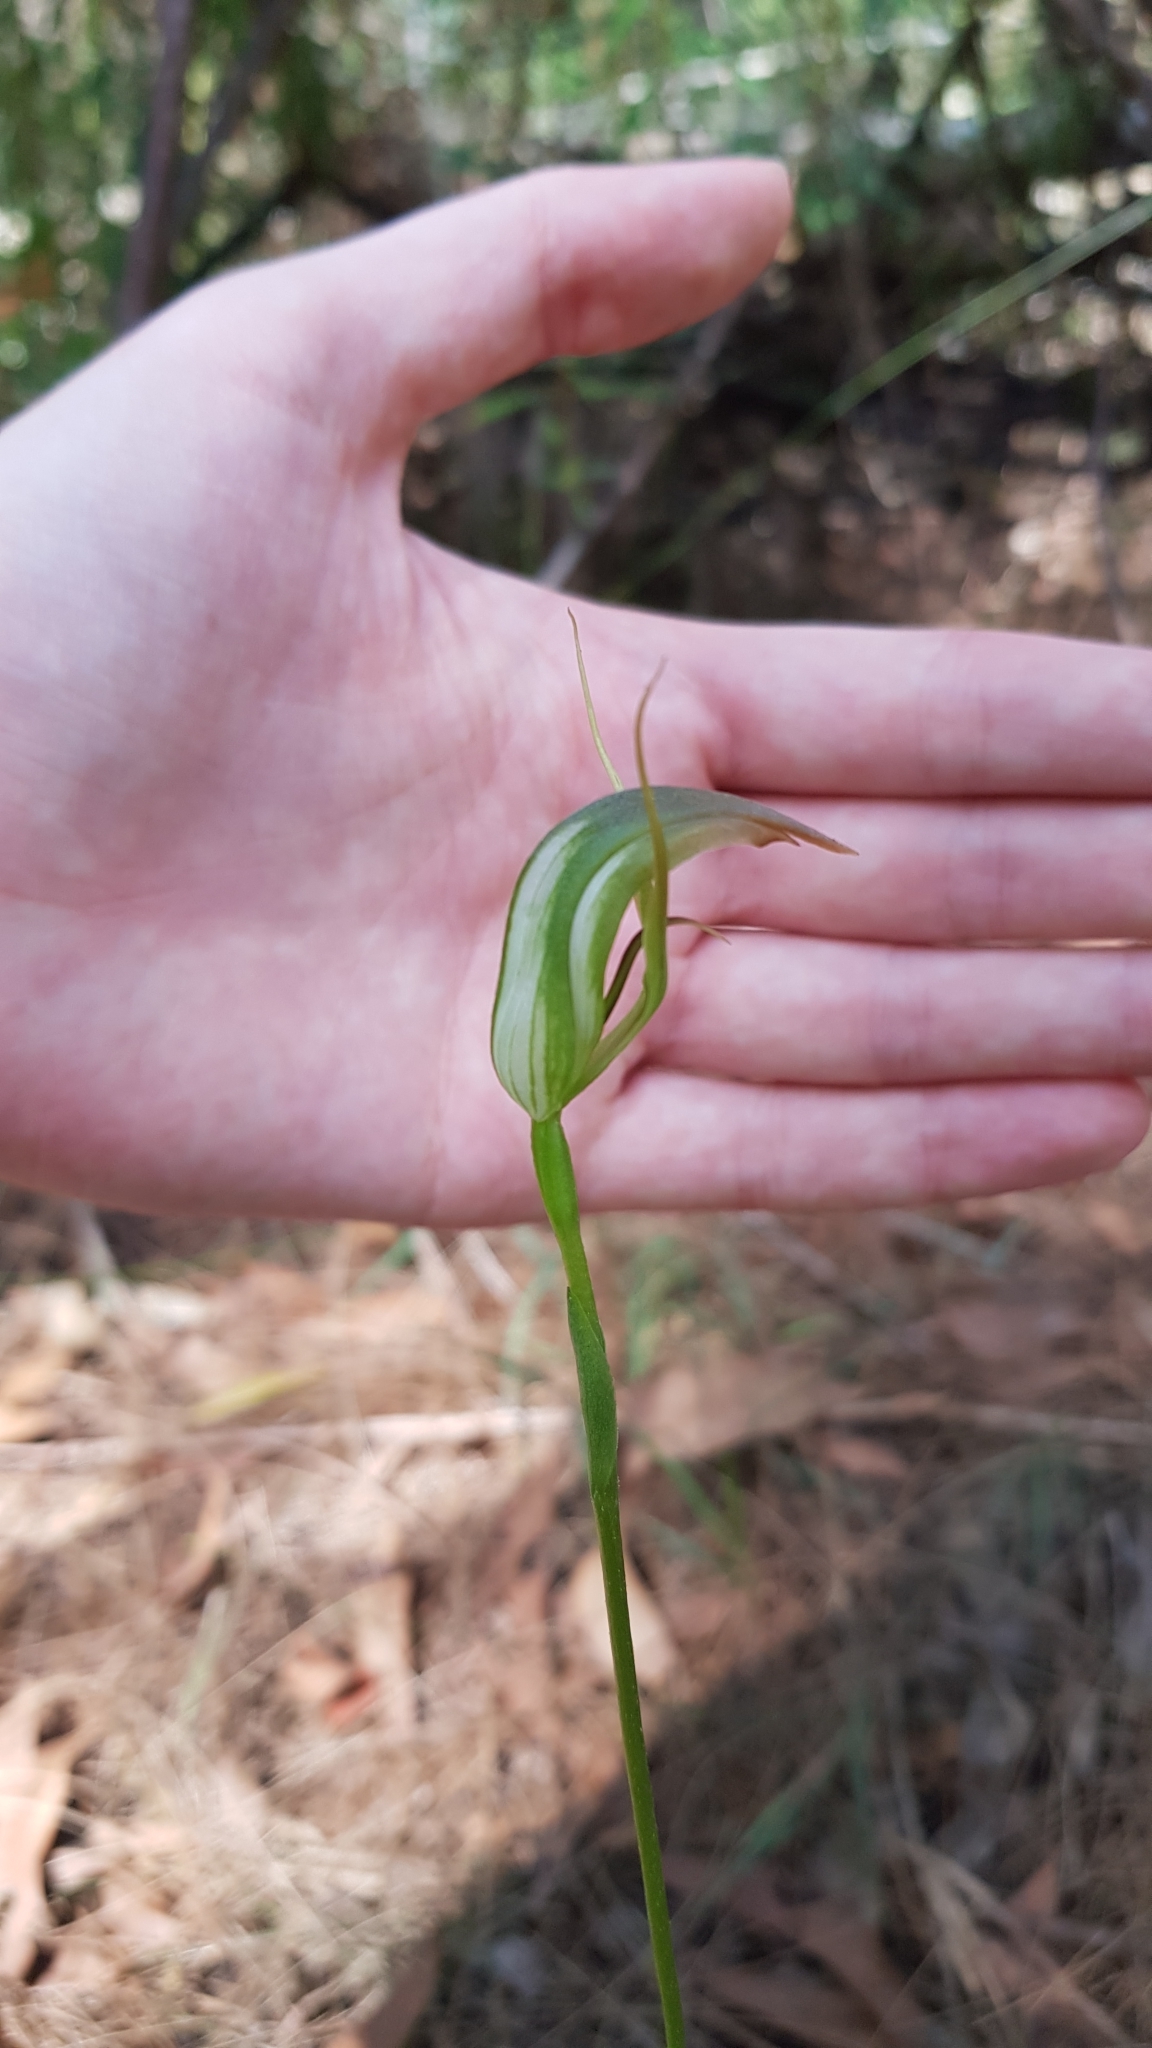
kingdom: Plantae
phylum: Tracheophyta
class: Liliopsida
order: Asparagales
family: Orchidaceae
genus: Pterostylis
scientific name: Pterostylis acuminata
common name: Pointed greenhood
